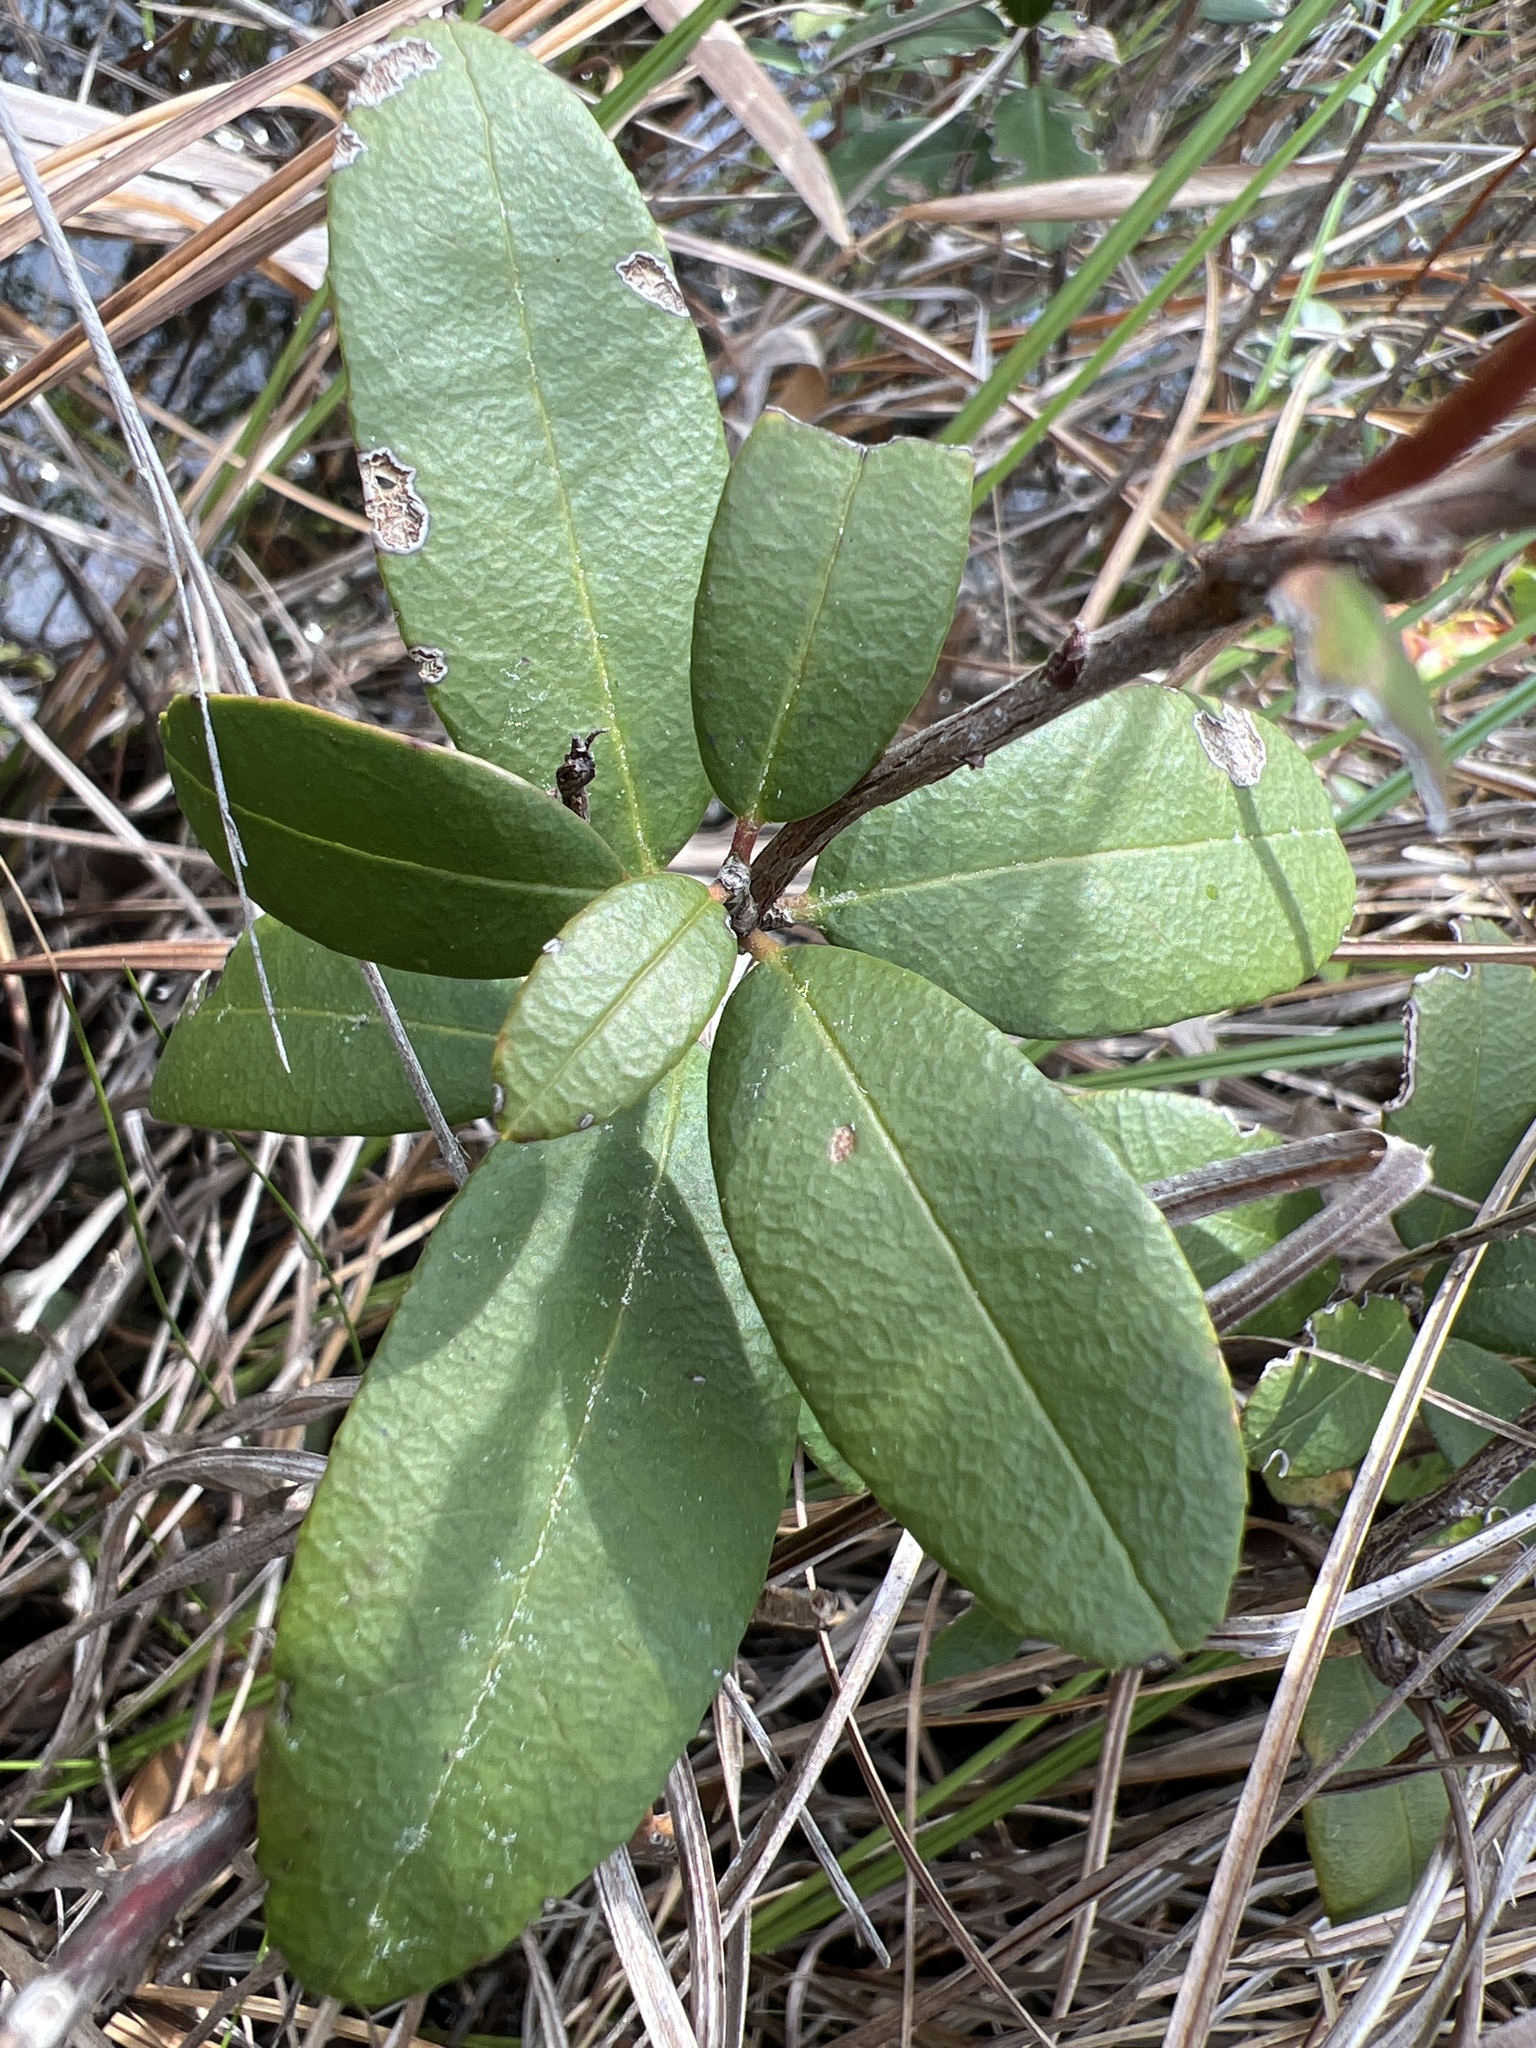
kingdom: Plantae
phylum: Tracheophyta
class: Magnoliopsida
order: Ericales
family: Ericaceae
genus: Pieris
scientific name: Pieris phillyreifolia
